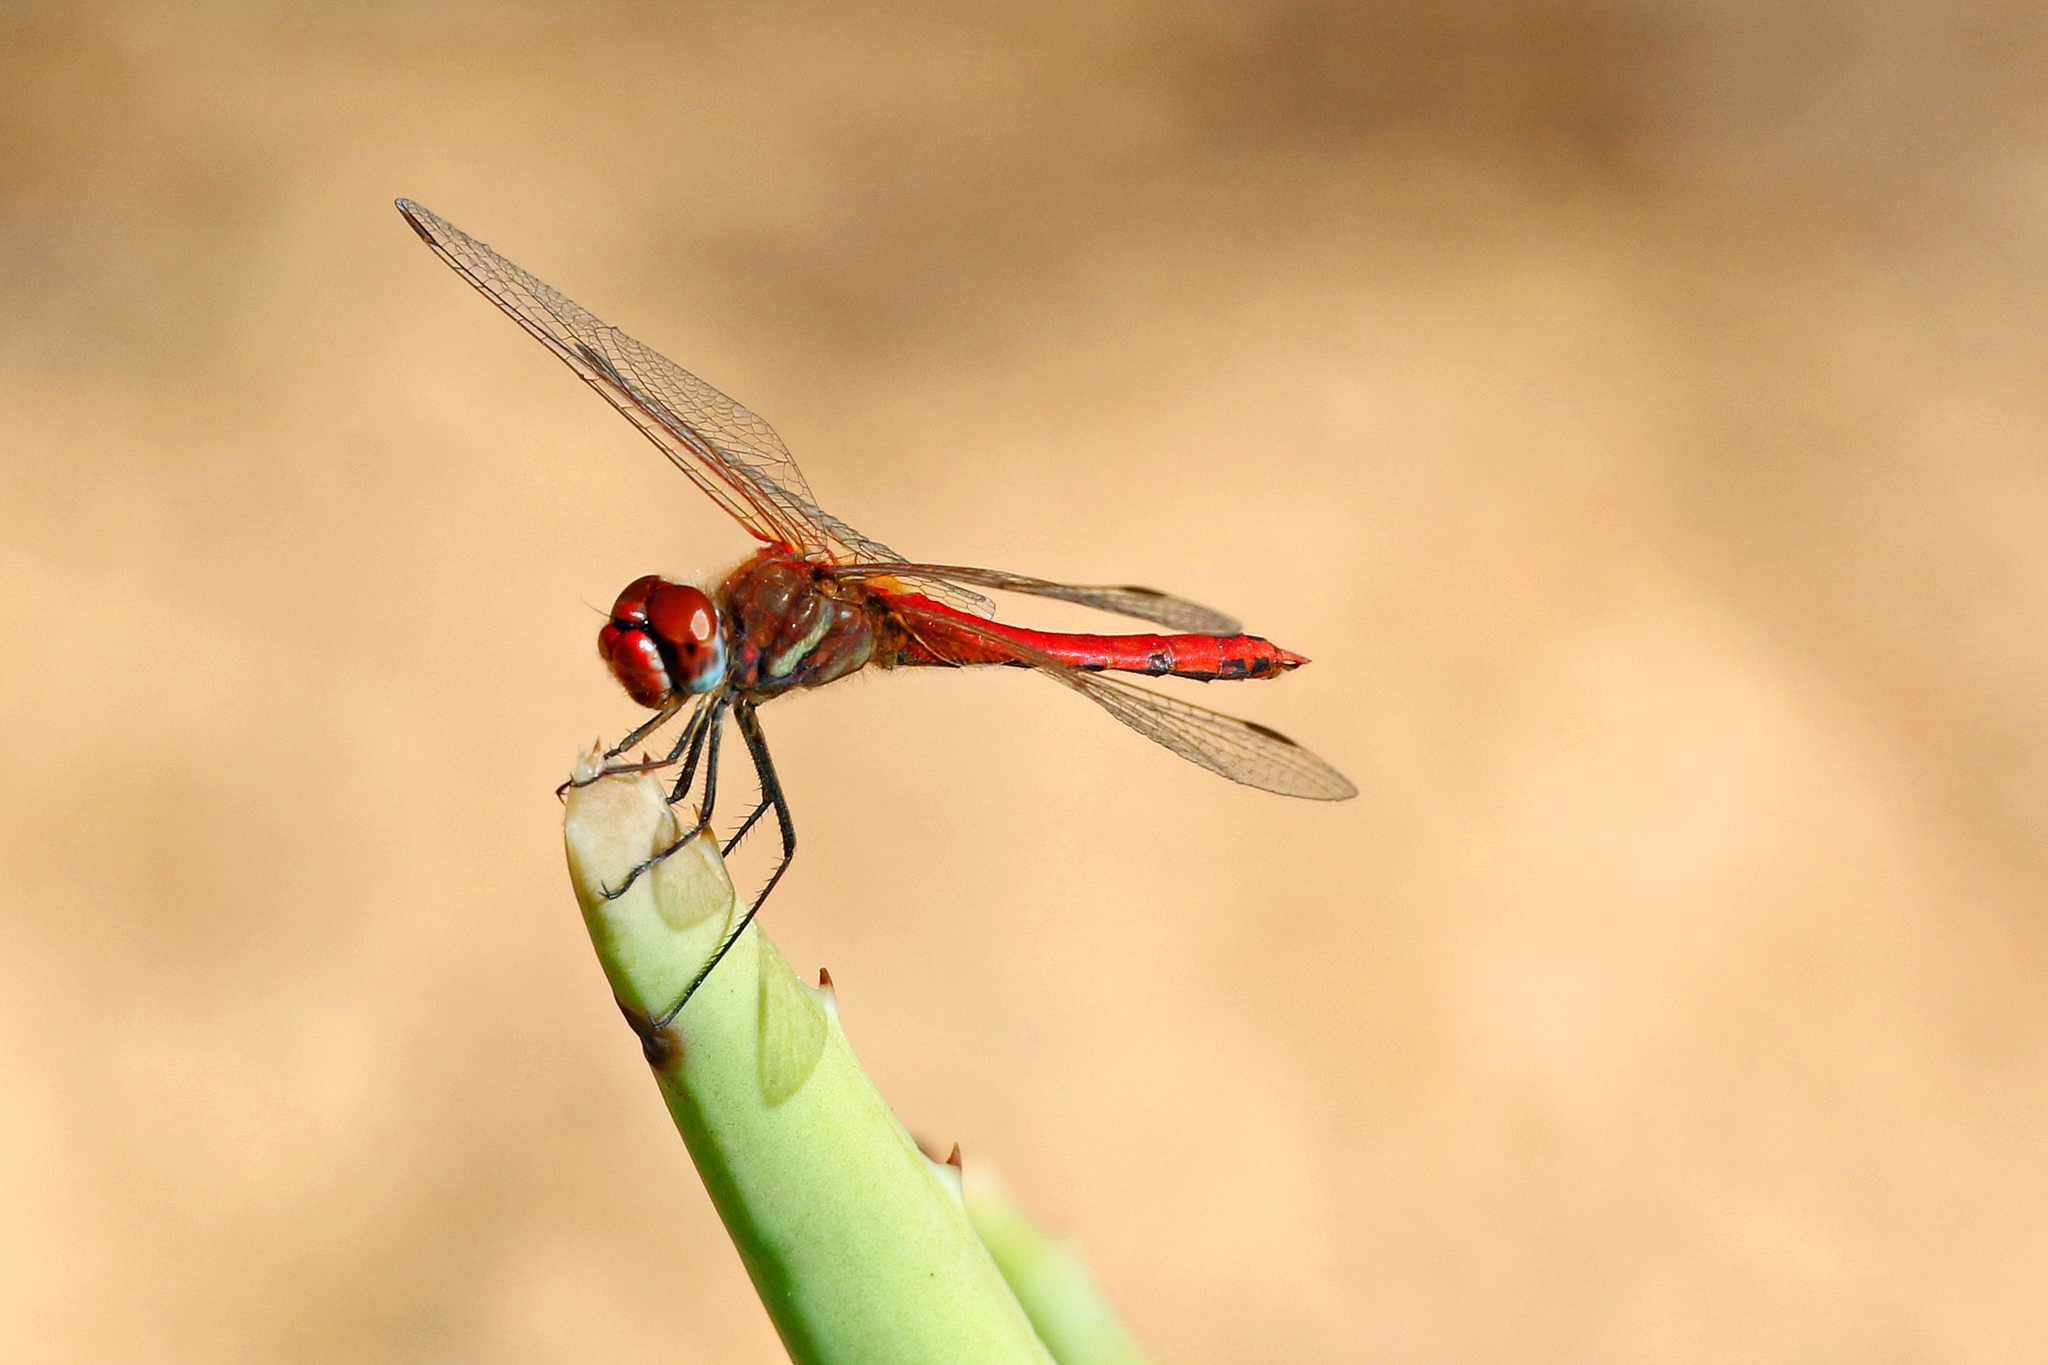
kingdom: Animalia
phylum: Arthropoda
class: Insecta
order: Odonata
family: Libellulidae
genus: Sympetrum
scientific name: Sympetrum fonscolombii
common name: Red-veined darter
